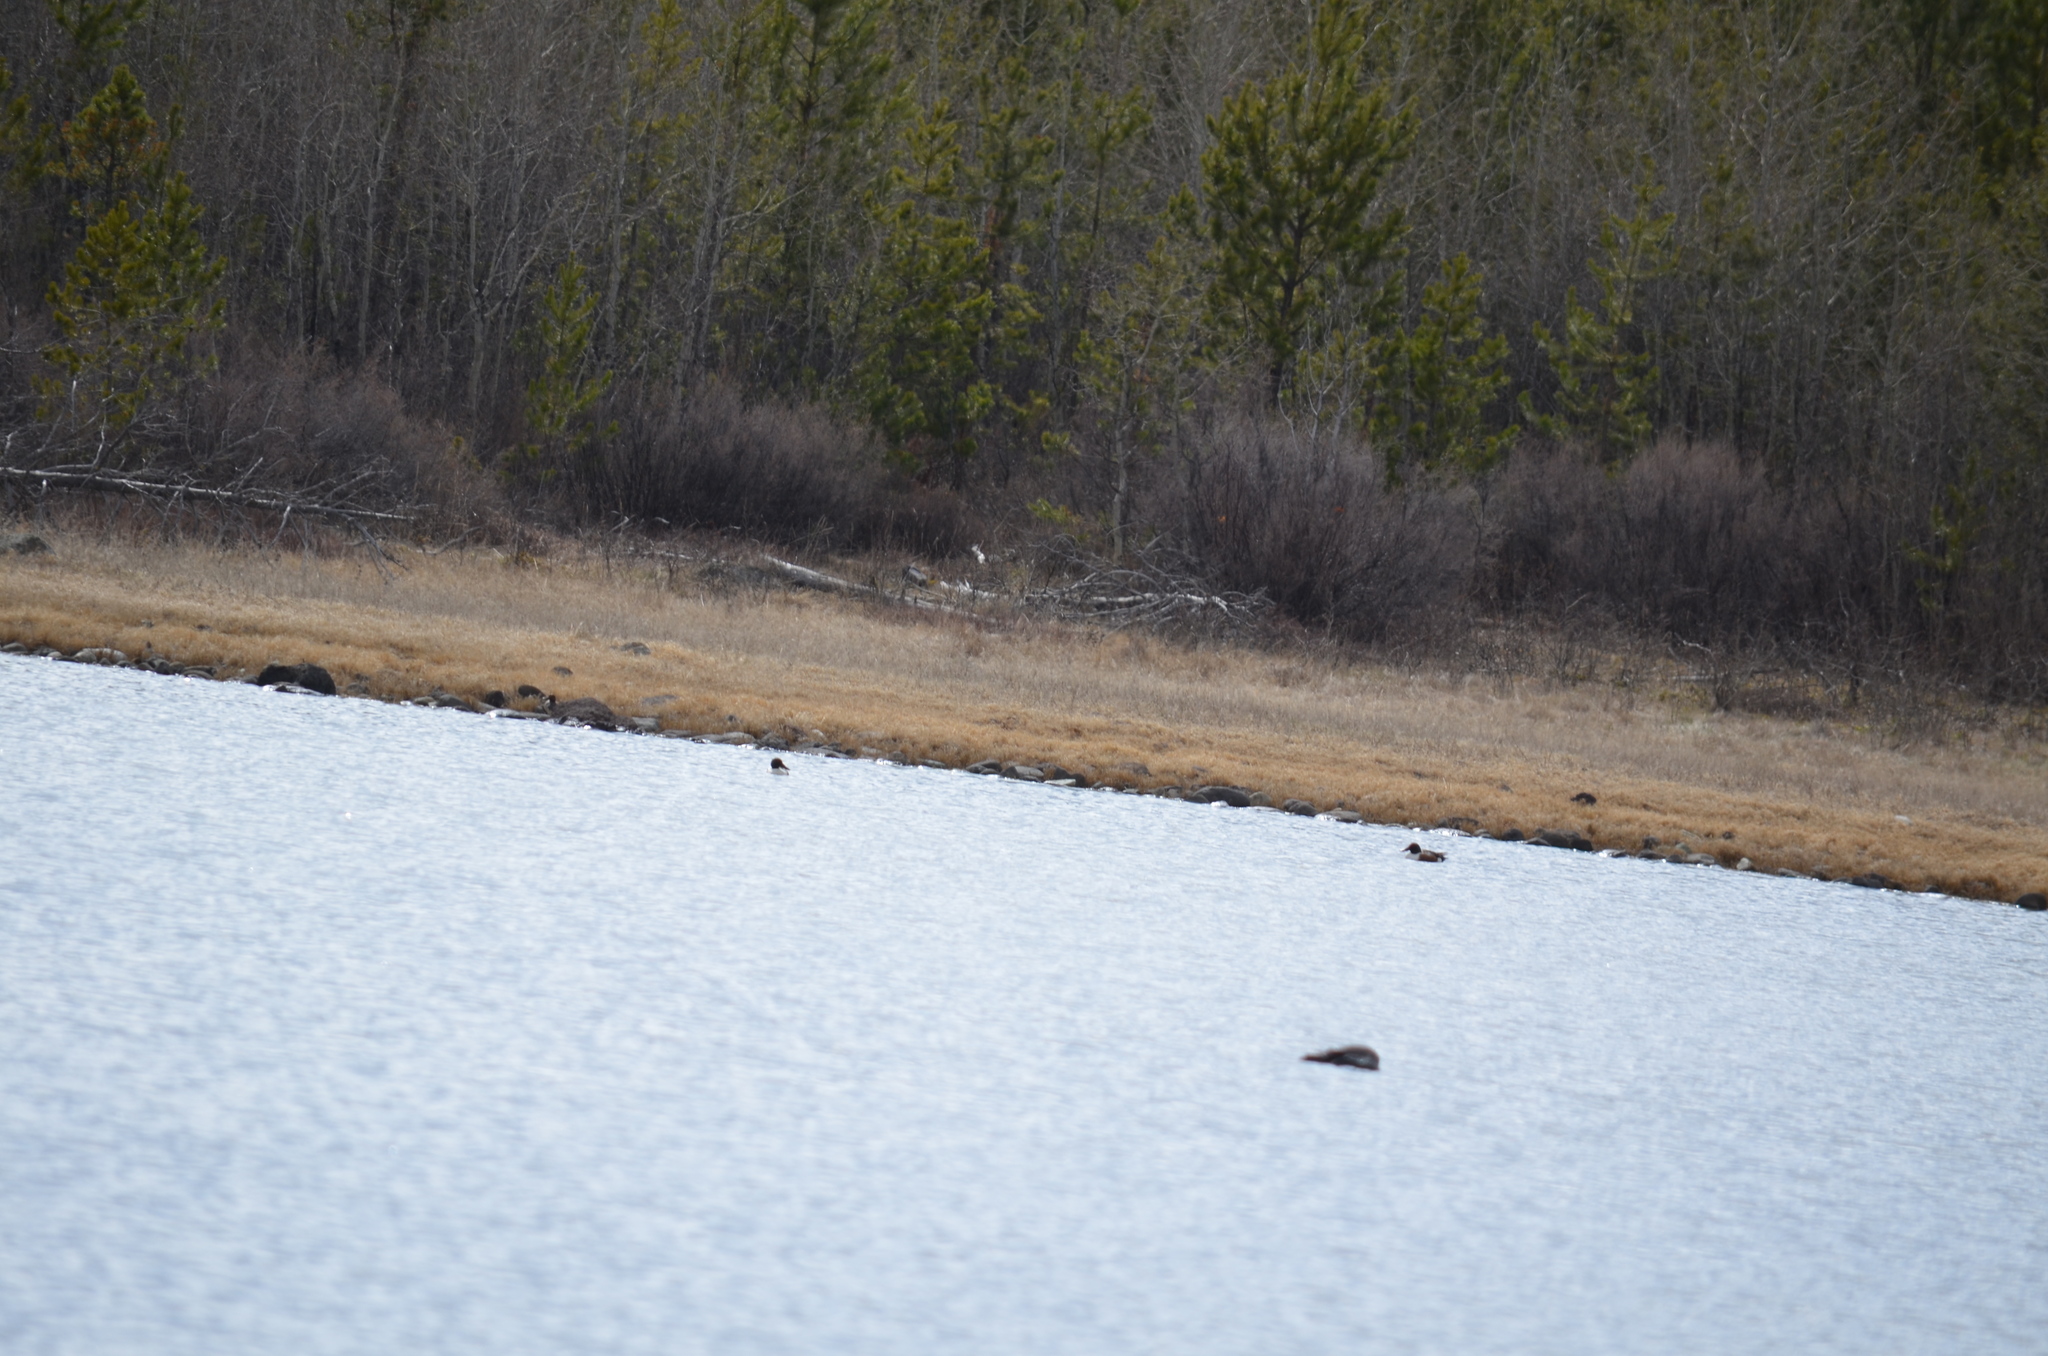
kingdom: Animalia
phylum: Chordata
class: Aves
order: Anseriformes
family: Anatidae
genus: Spatula
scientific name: Spatula clypeata
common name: Northern shoveler
